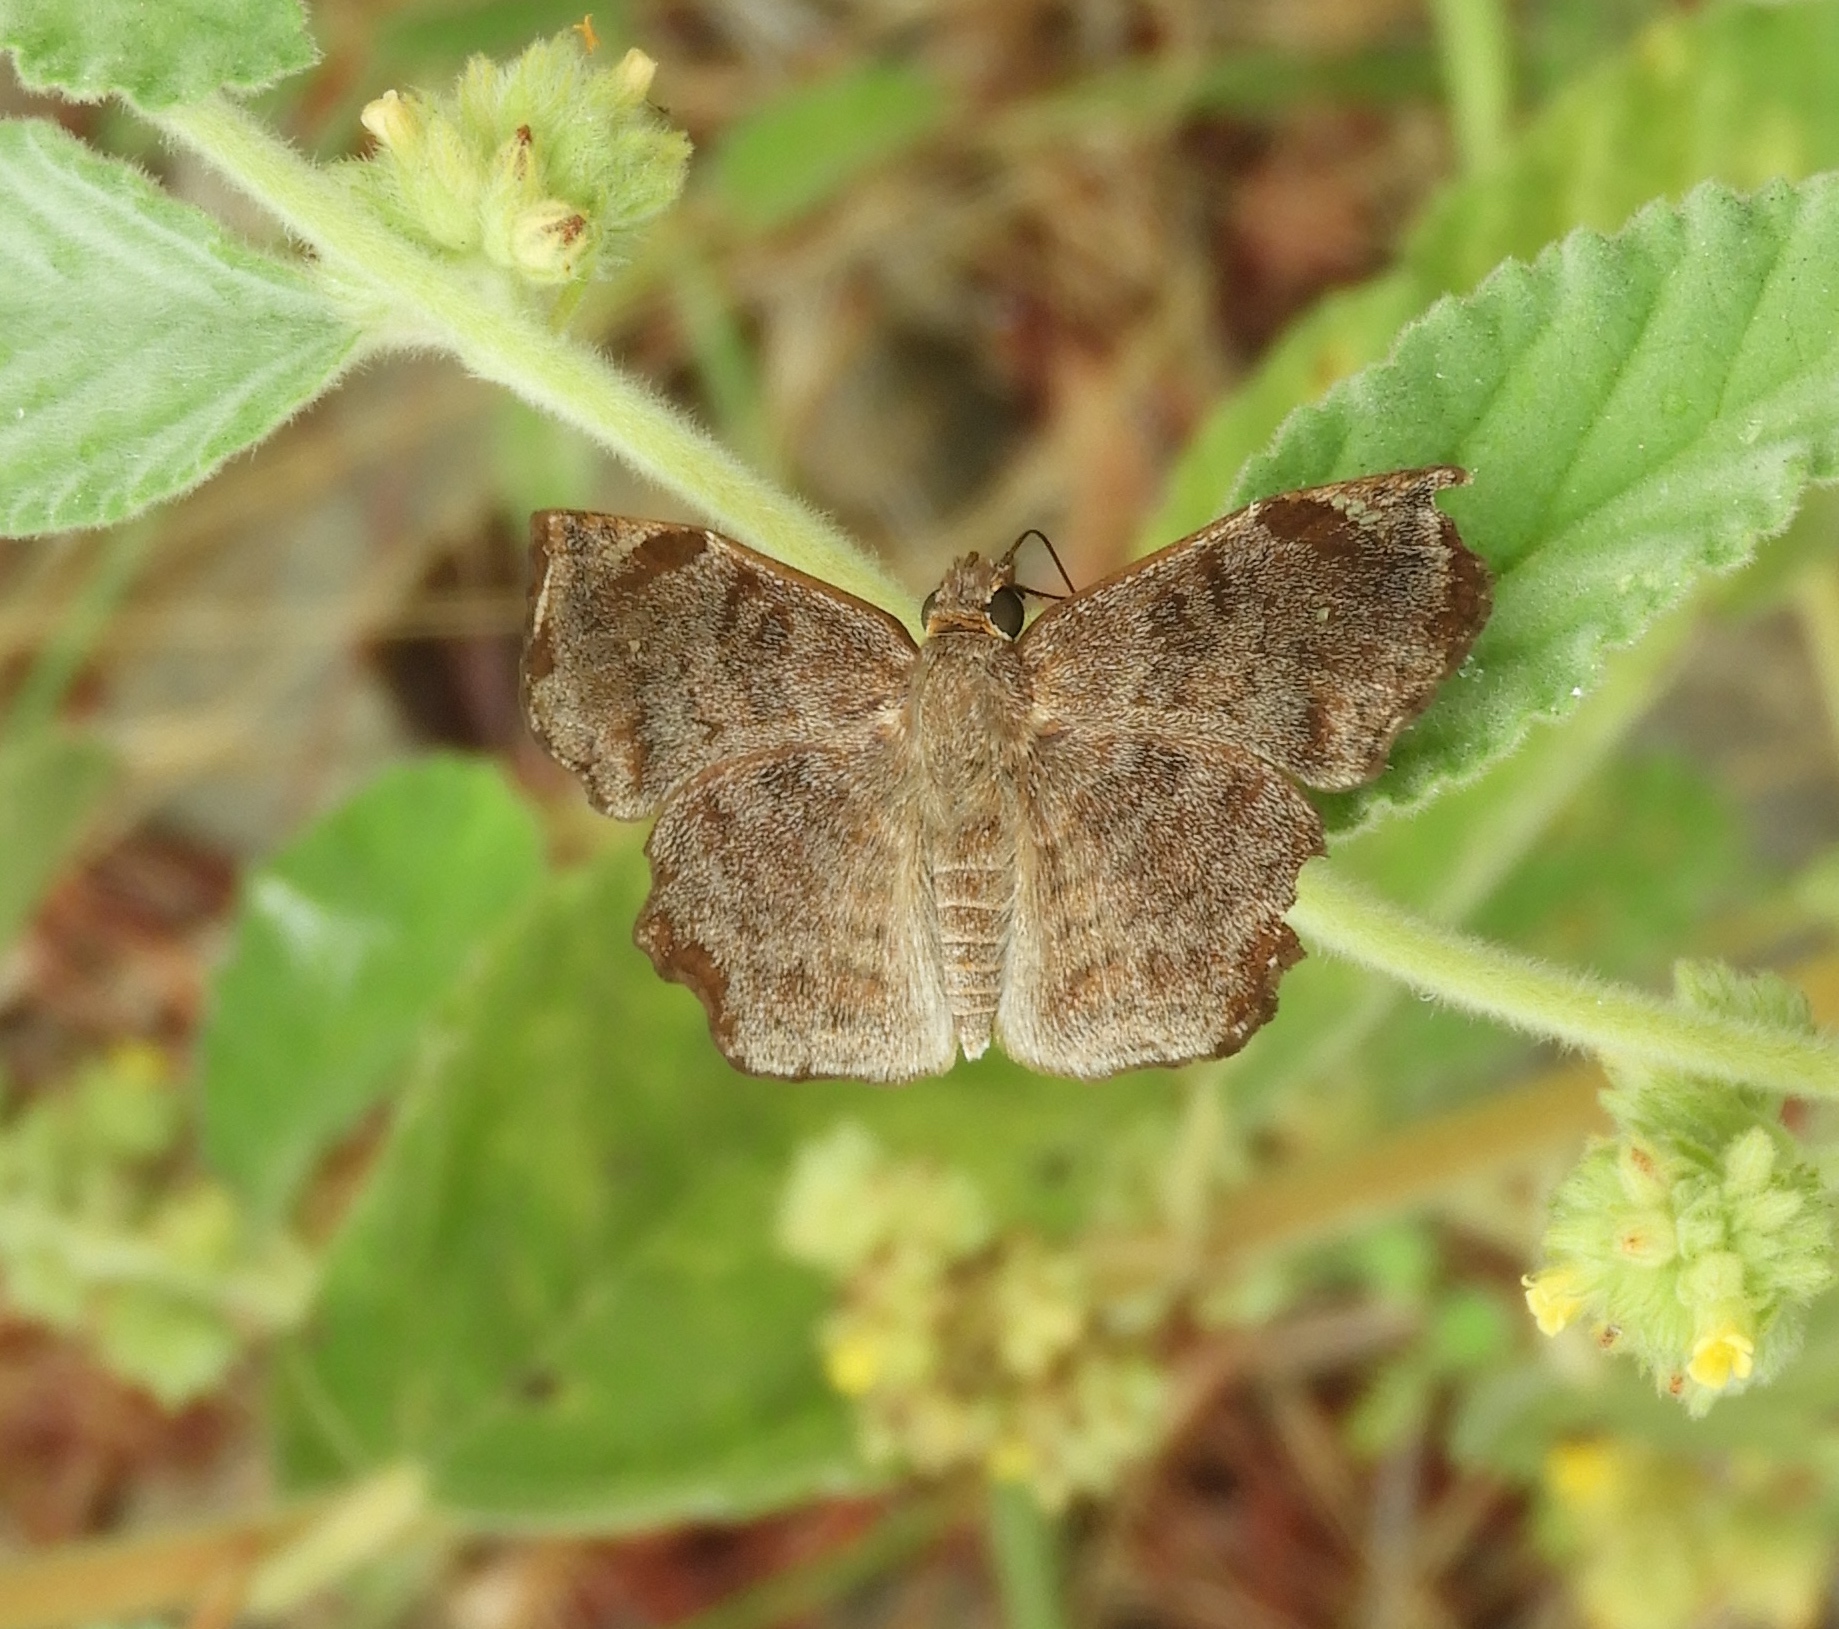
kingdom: Animalia
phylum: Arthropoda
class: Insecta
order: Lepidoptera
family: Hesperiidae
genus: Antigonus
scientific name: Antigonus erosus
